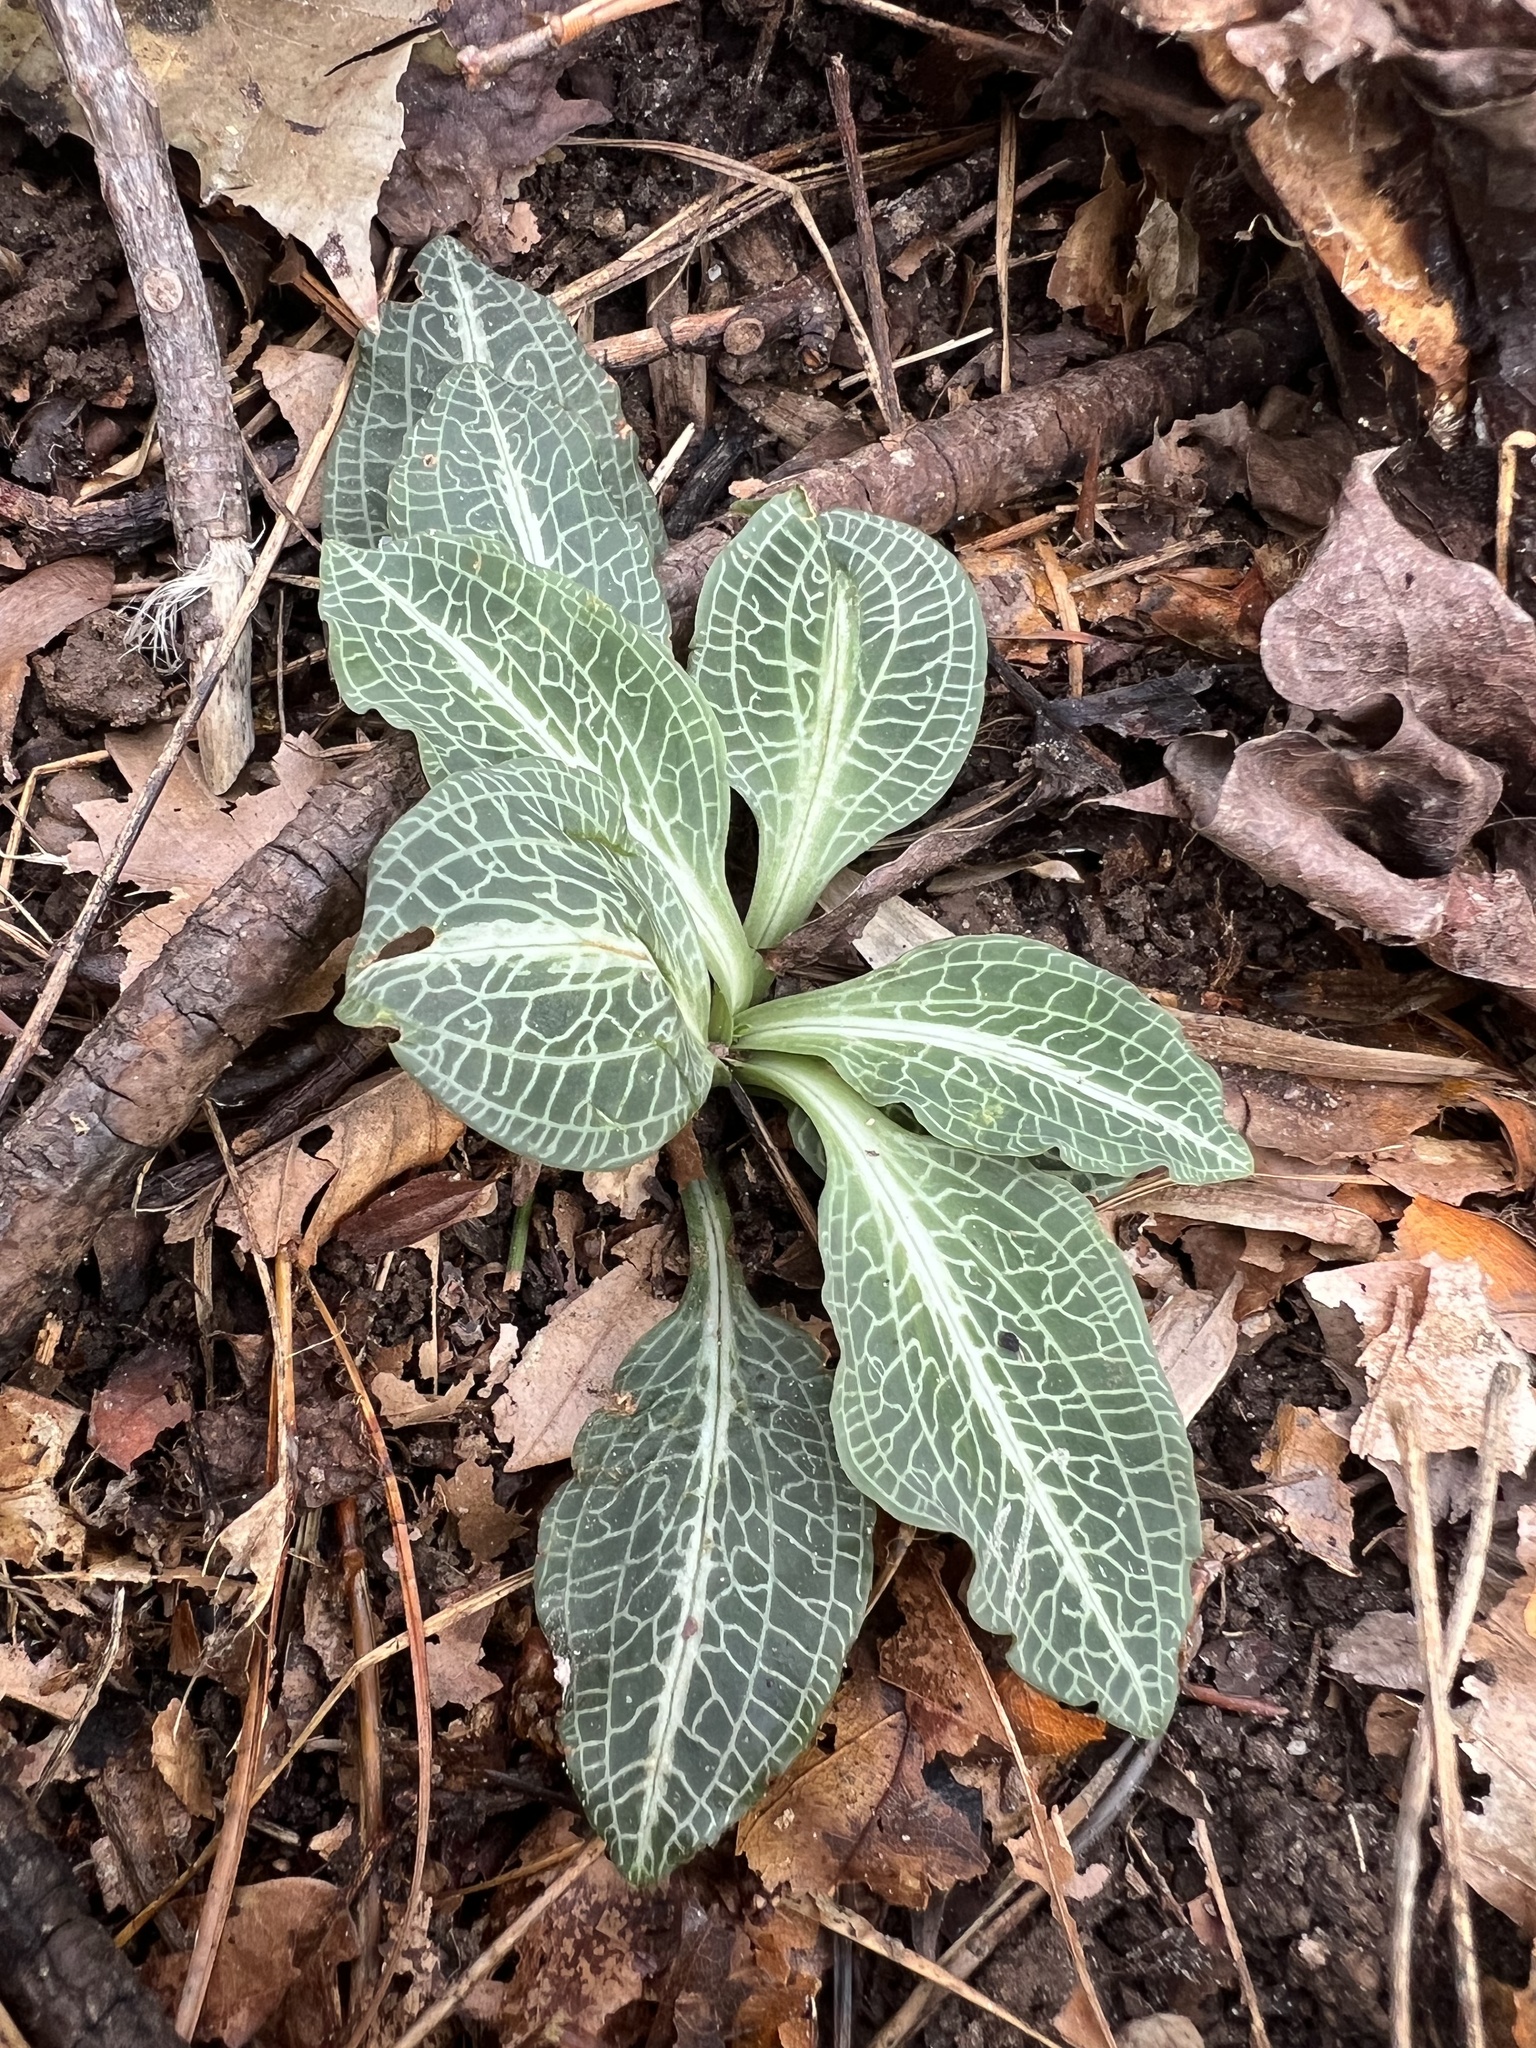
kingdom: Plantae
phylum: Tracheophyta
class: Liliopsida
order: Asparagales
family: Orchidaceae
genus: Goodyera
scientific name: Goodyera pubescens
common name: Downy rattlesnake-plantain
